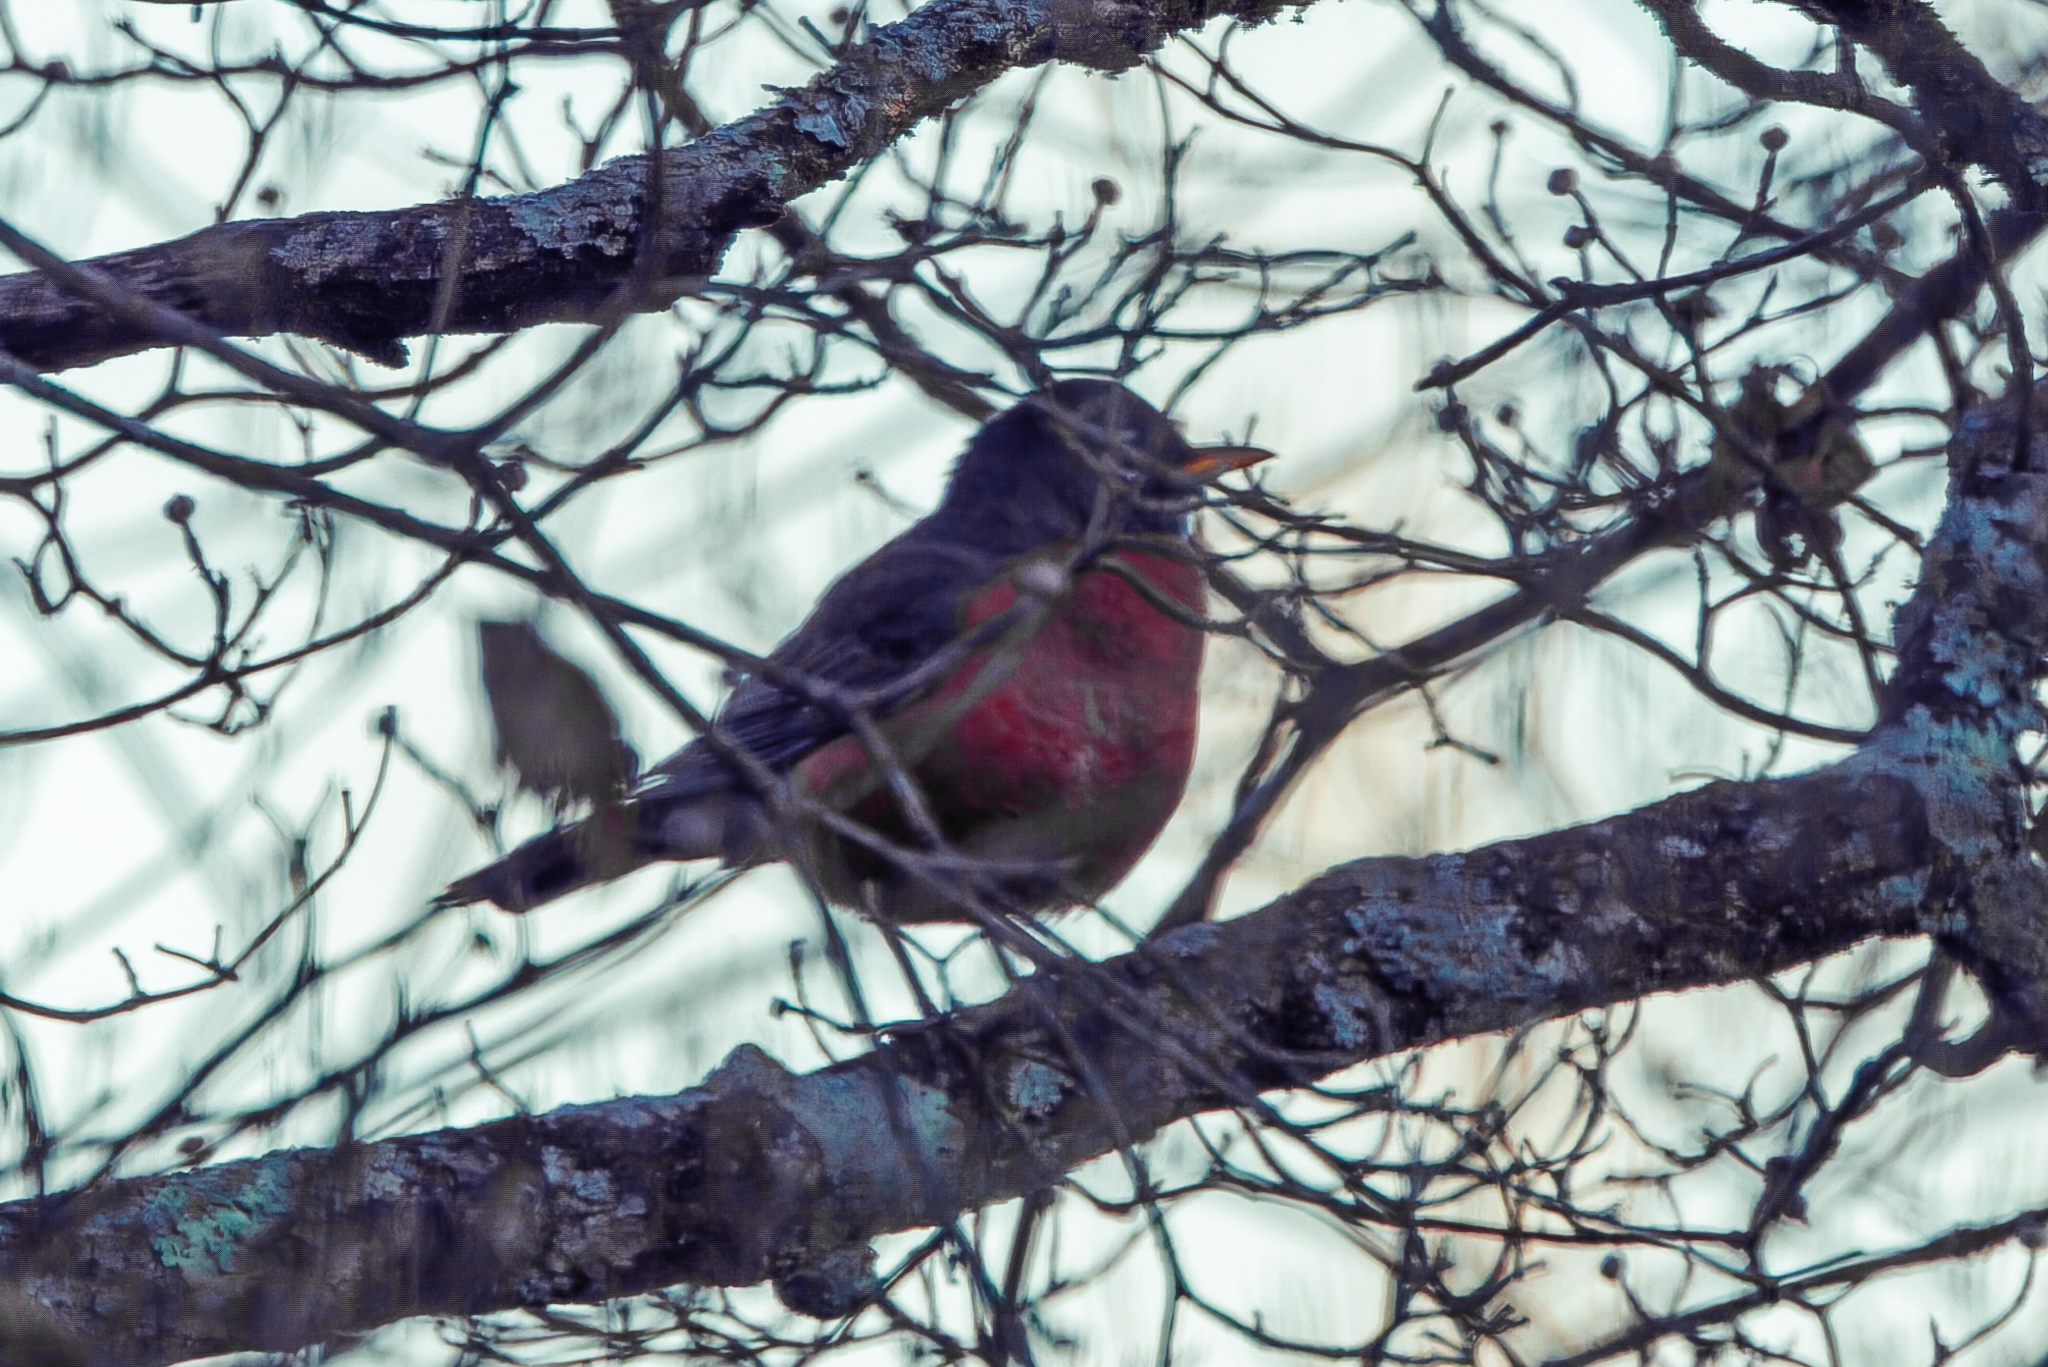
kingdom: Animalia
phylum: Chordata
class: Aves
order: Passeriformes
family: Turdidae
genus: Turdus
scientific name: Turdus migratorius
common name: American robin
